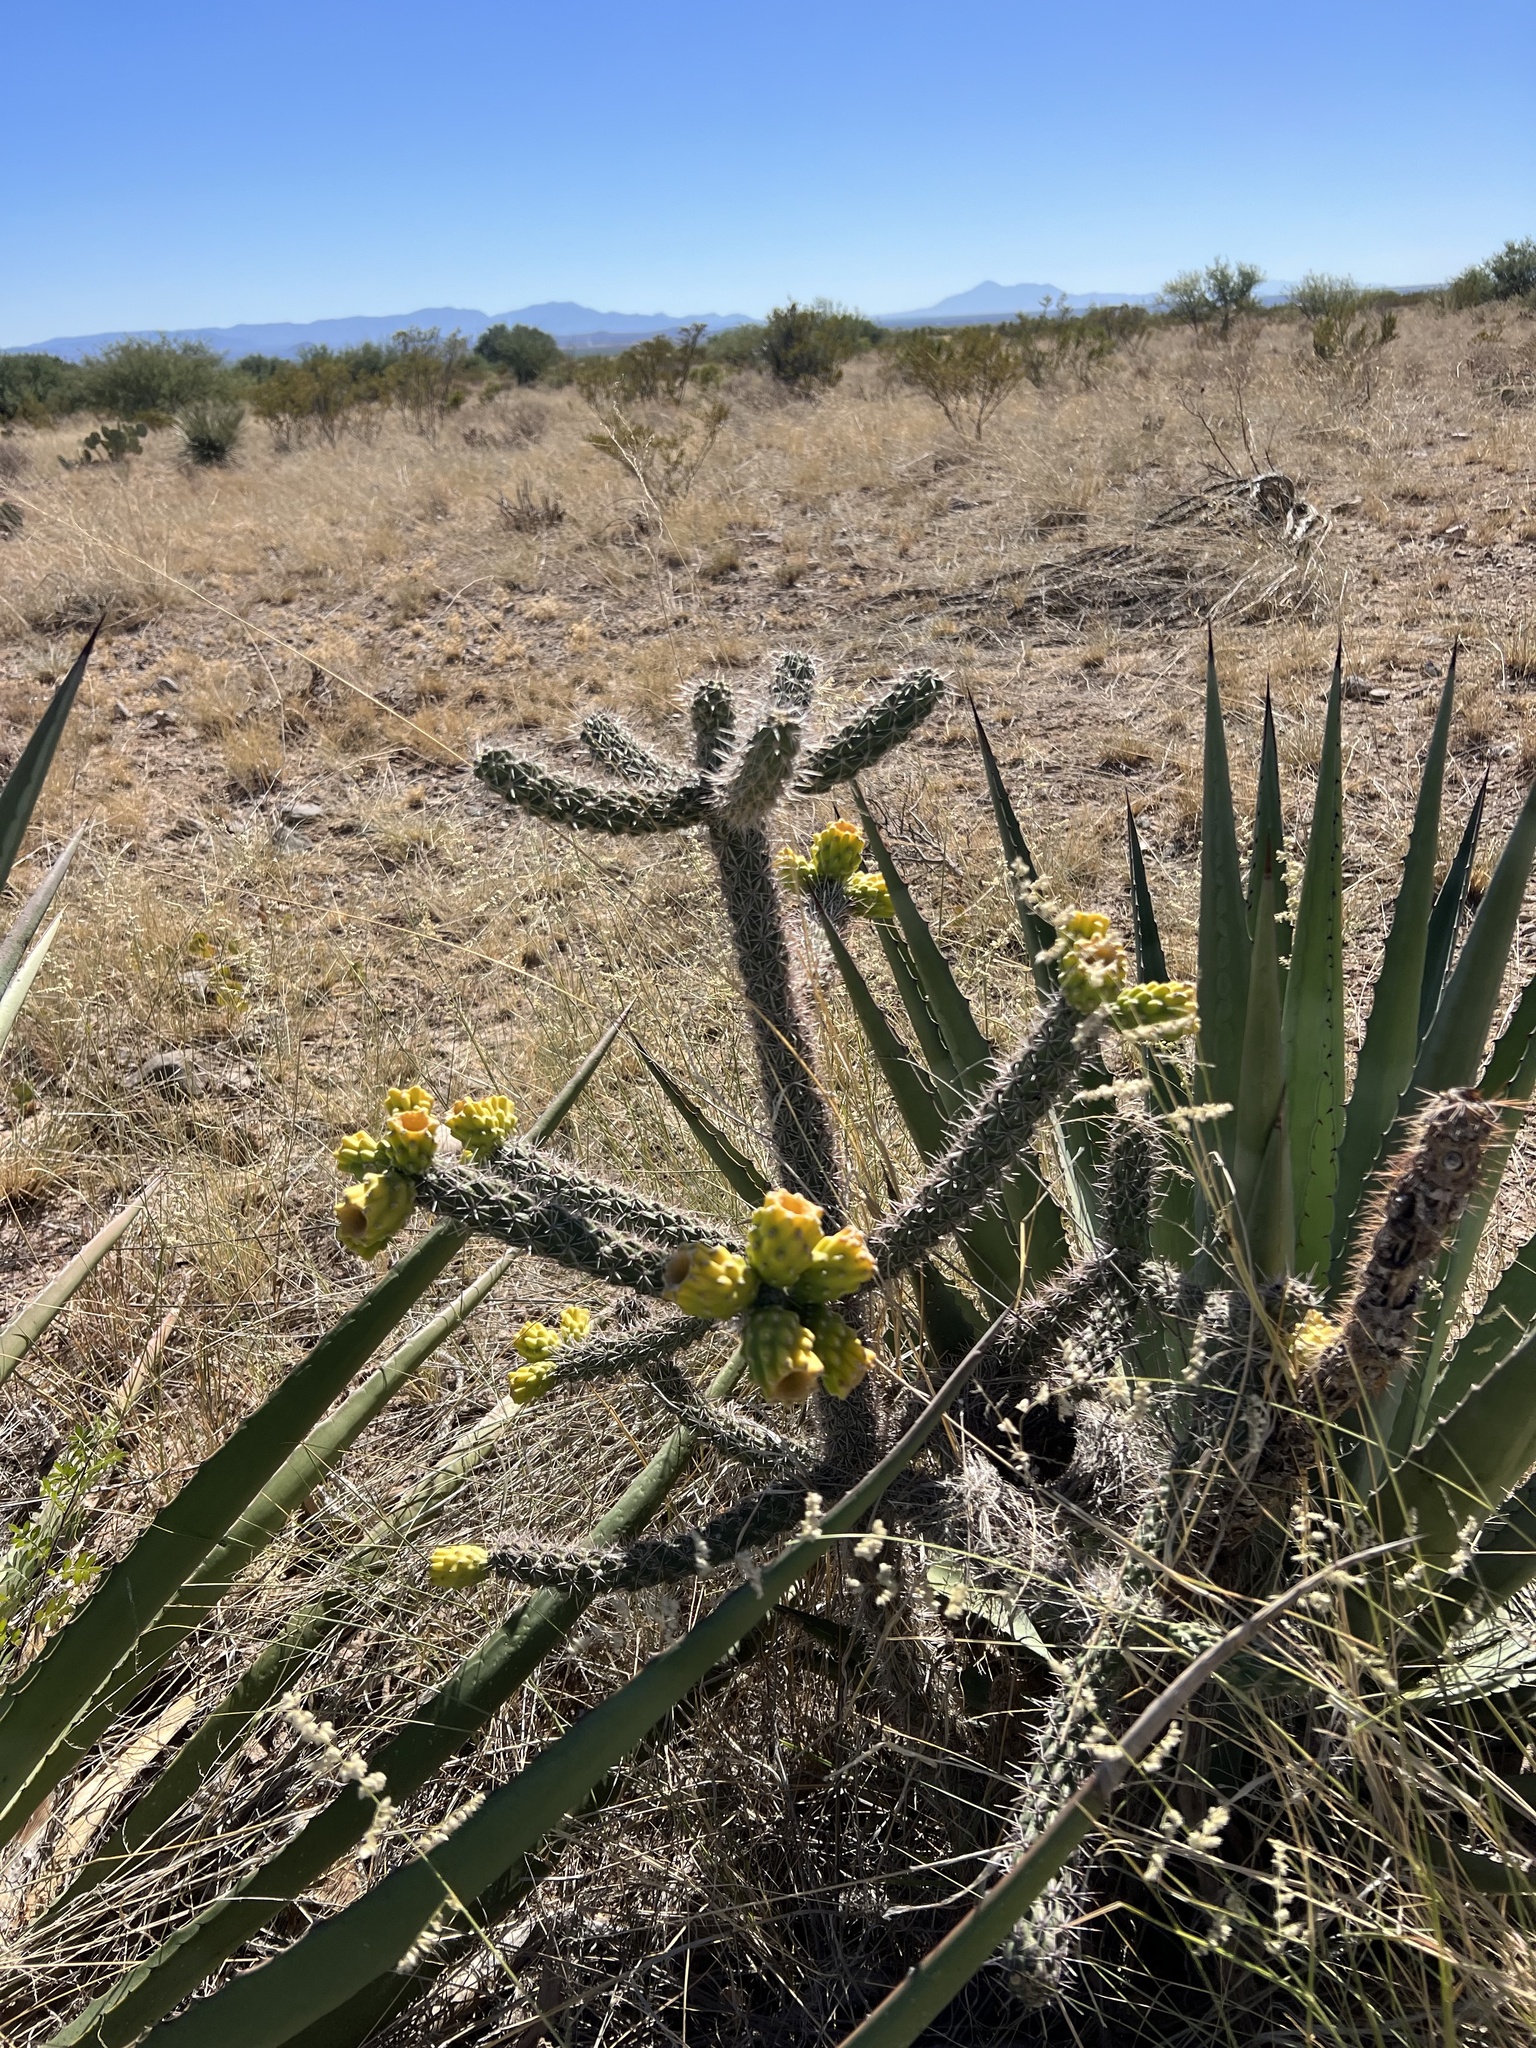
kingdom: Plantae
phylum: Tracheophyta
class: Magnoliopsida
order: Caryophyllales
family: Cactaceae
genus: Cylindropuntia
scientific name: Cylindropuntia imbricata
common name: Candelabrum cactus
